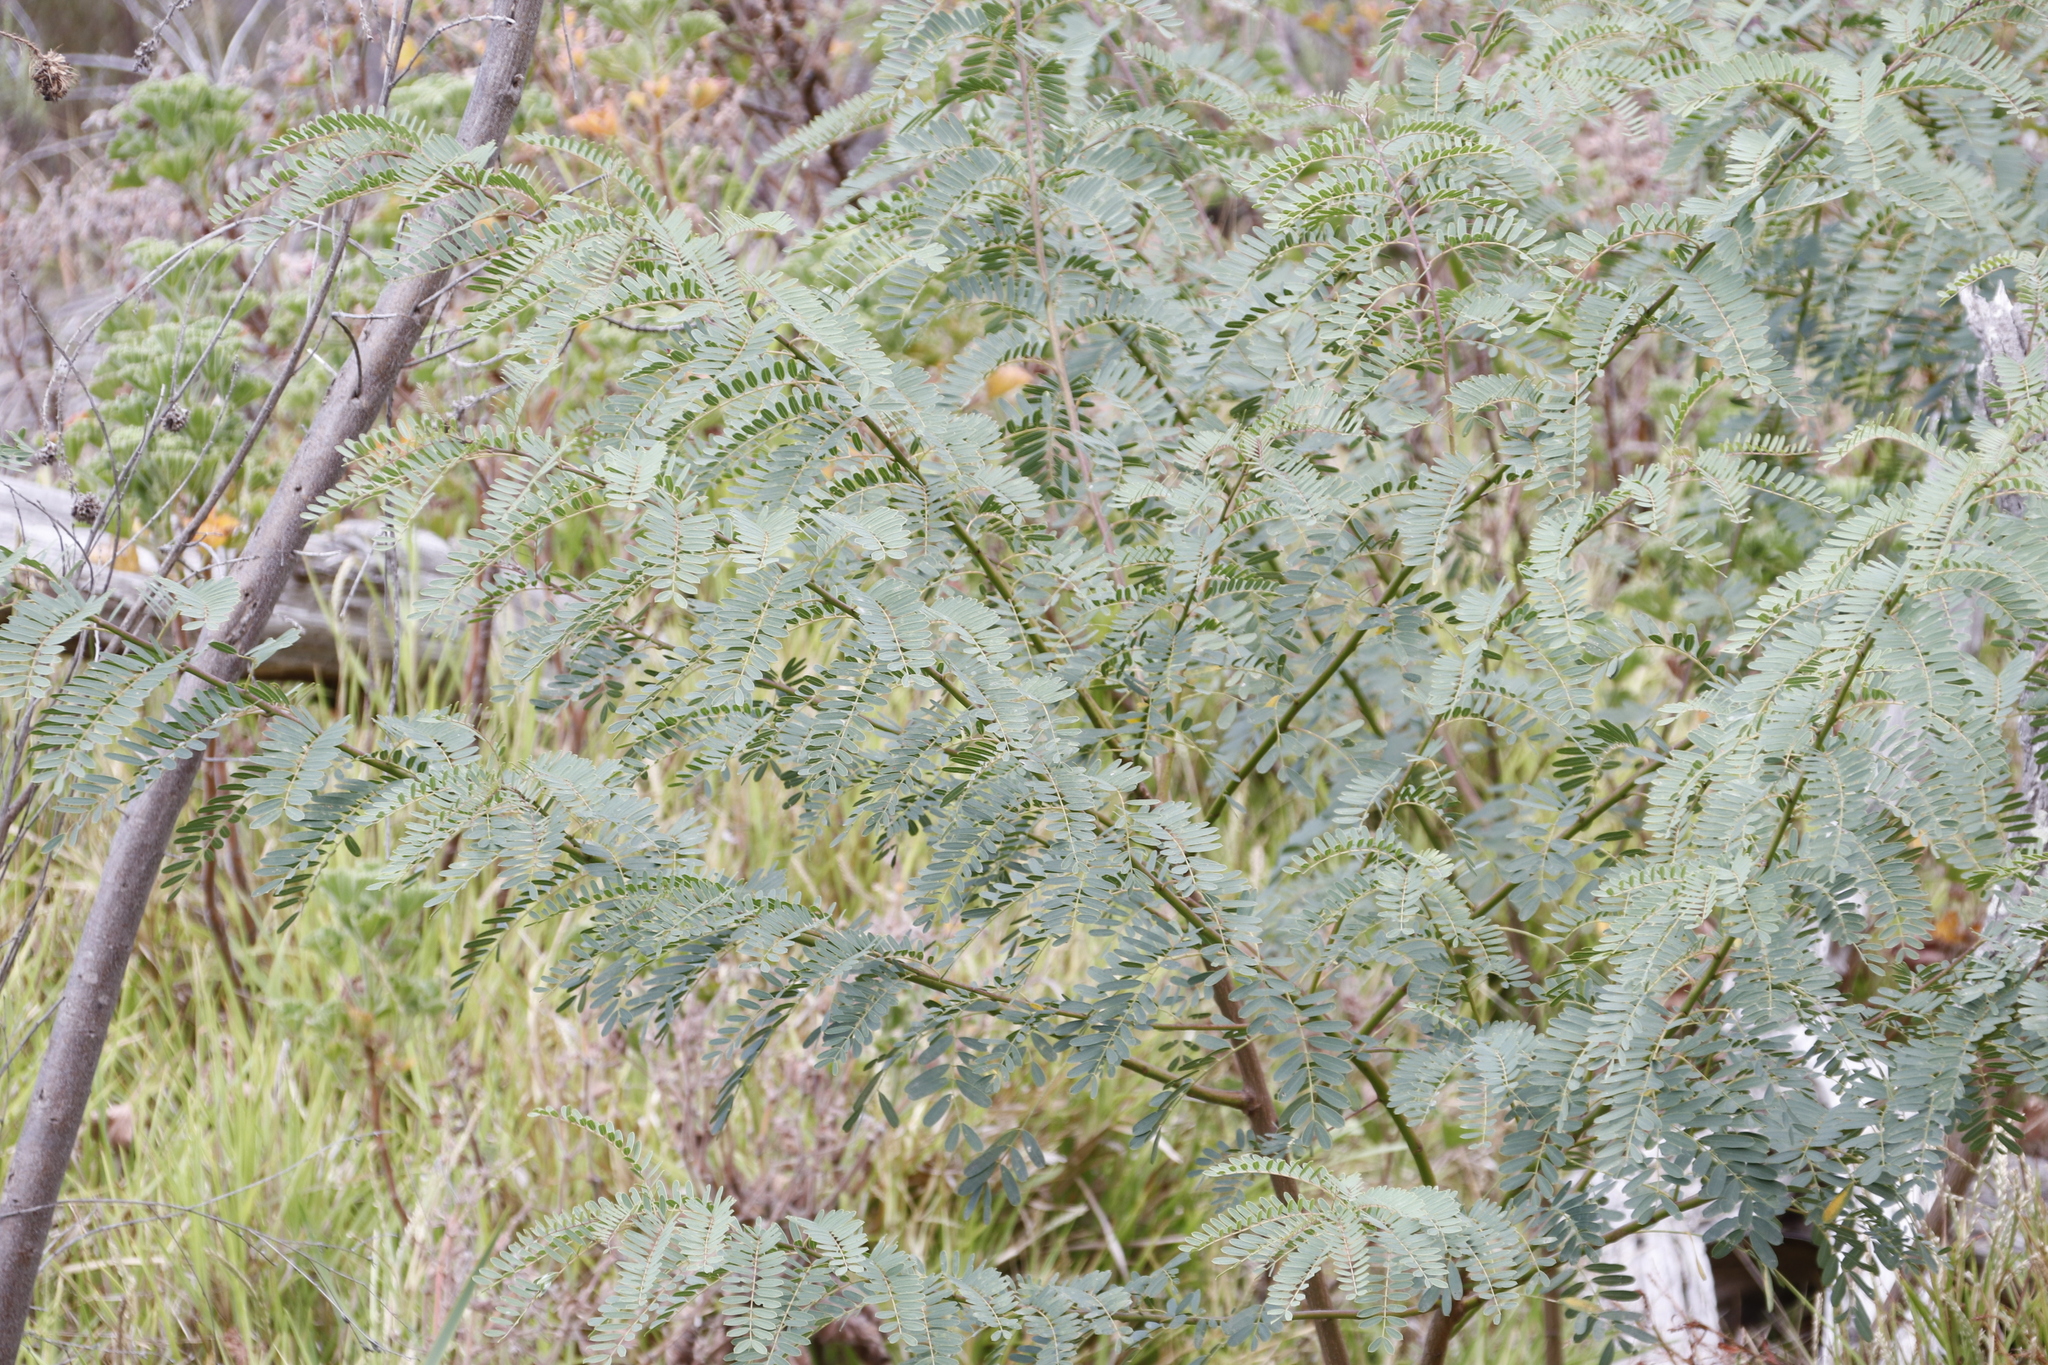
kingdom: Plantae
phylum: Tracheophyta
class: Magnoliopsida
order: Fabales
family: Fabaceae
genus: Sesbania
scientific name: Sesbania punicea
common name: Rattlebox
